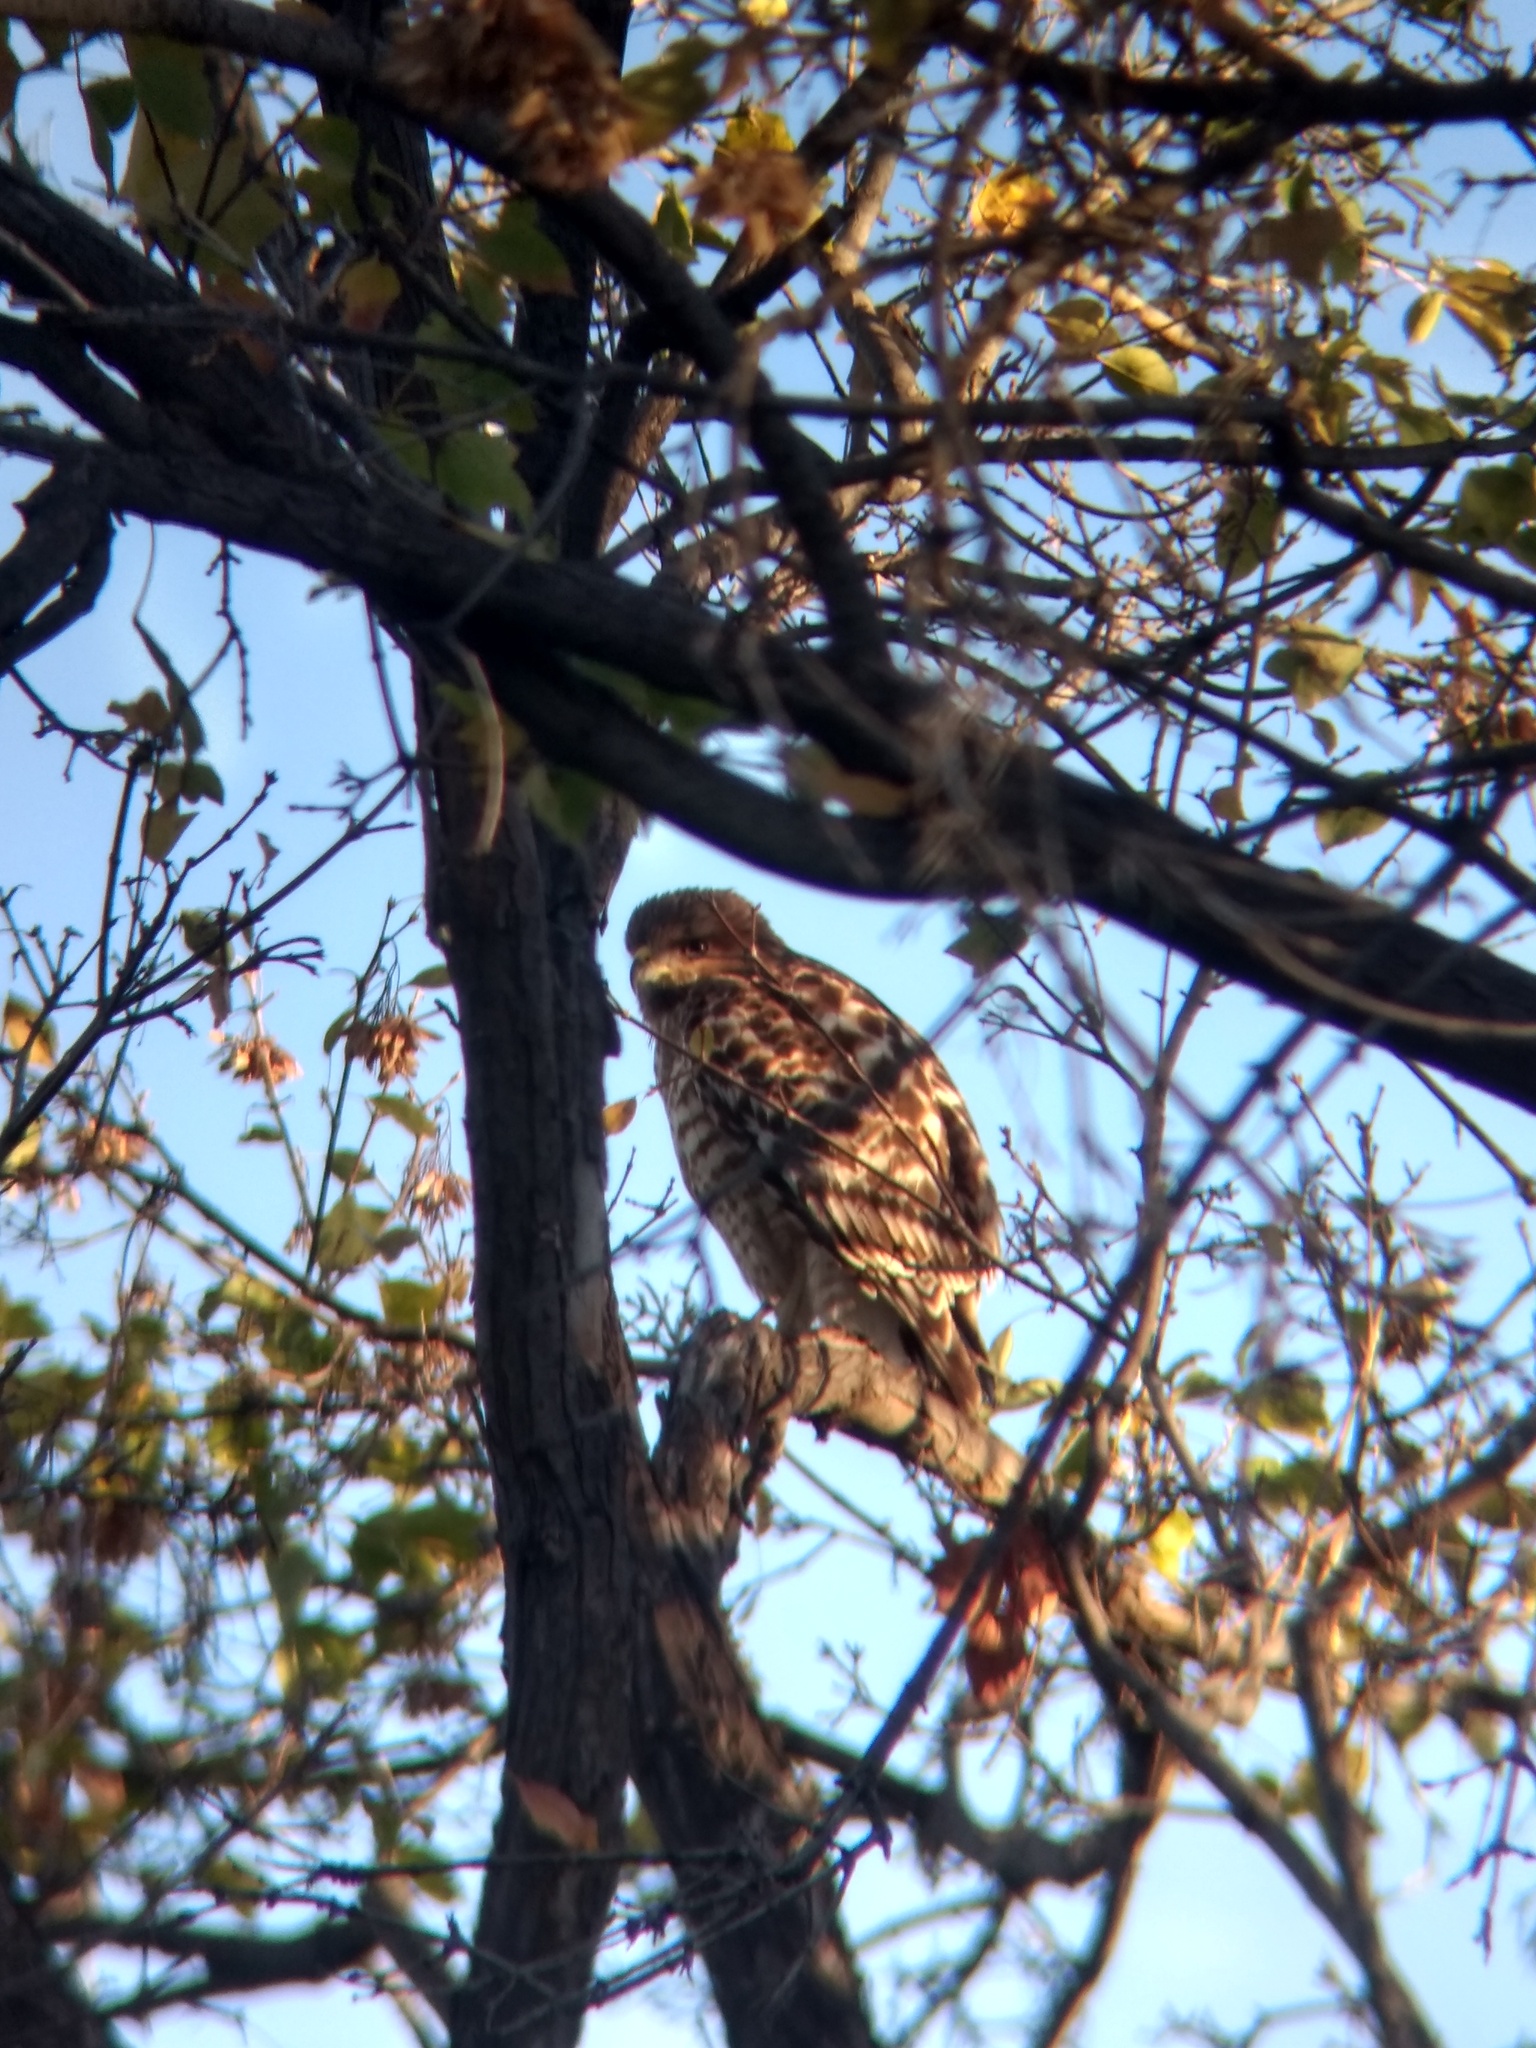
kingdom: Animalia
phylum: Chordata
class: Aves
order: Accipitriformes
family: Accipitridae
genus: Buteo
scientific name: Buteo lineatus
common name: Red-shouldered hawk
